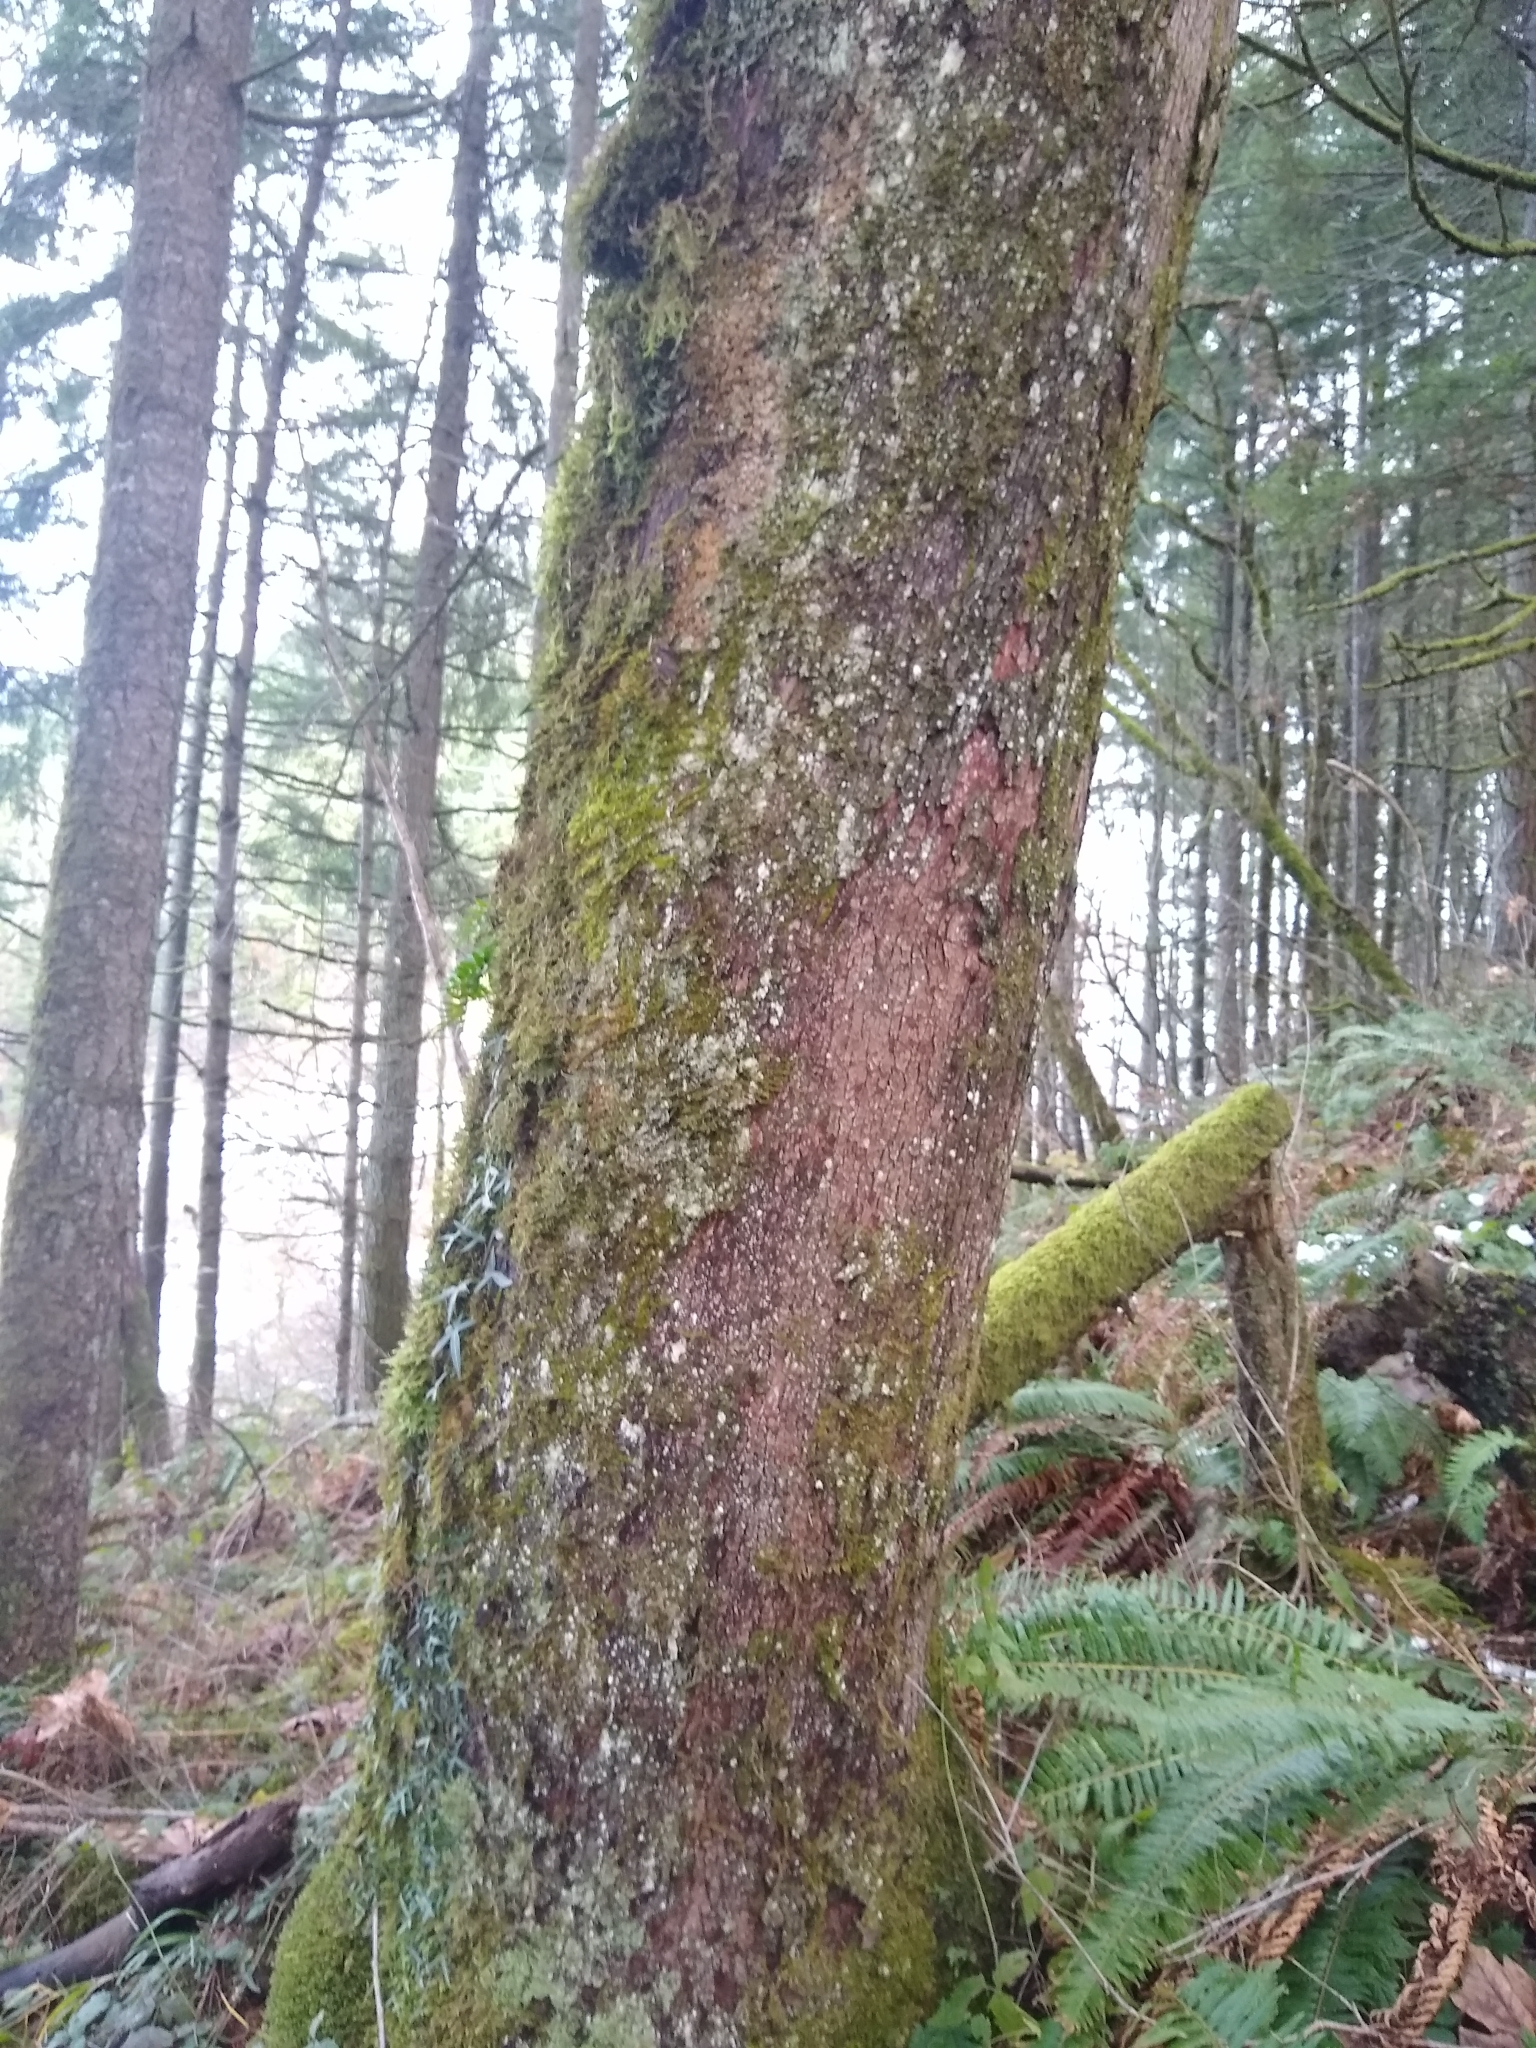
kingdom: Plantae
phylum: Tracheophyta
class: Magnoliopsida
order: Ericales
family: Ericaceae
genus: Arbutus
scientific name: Arbutus menziesii
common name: Pacific madrone
